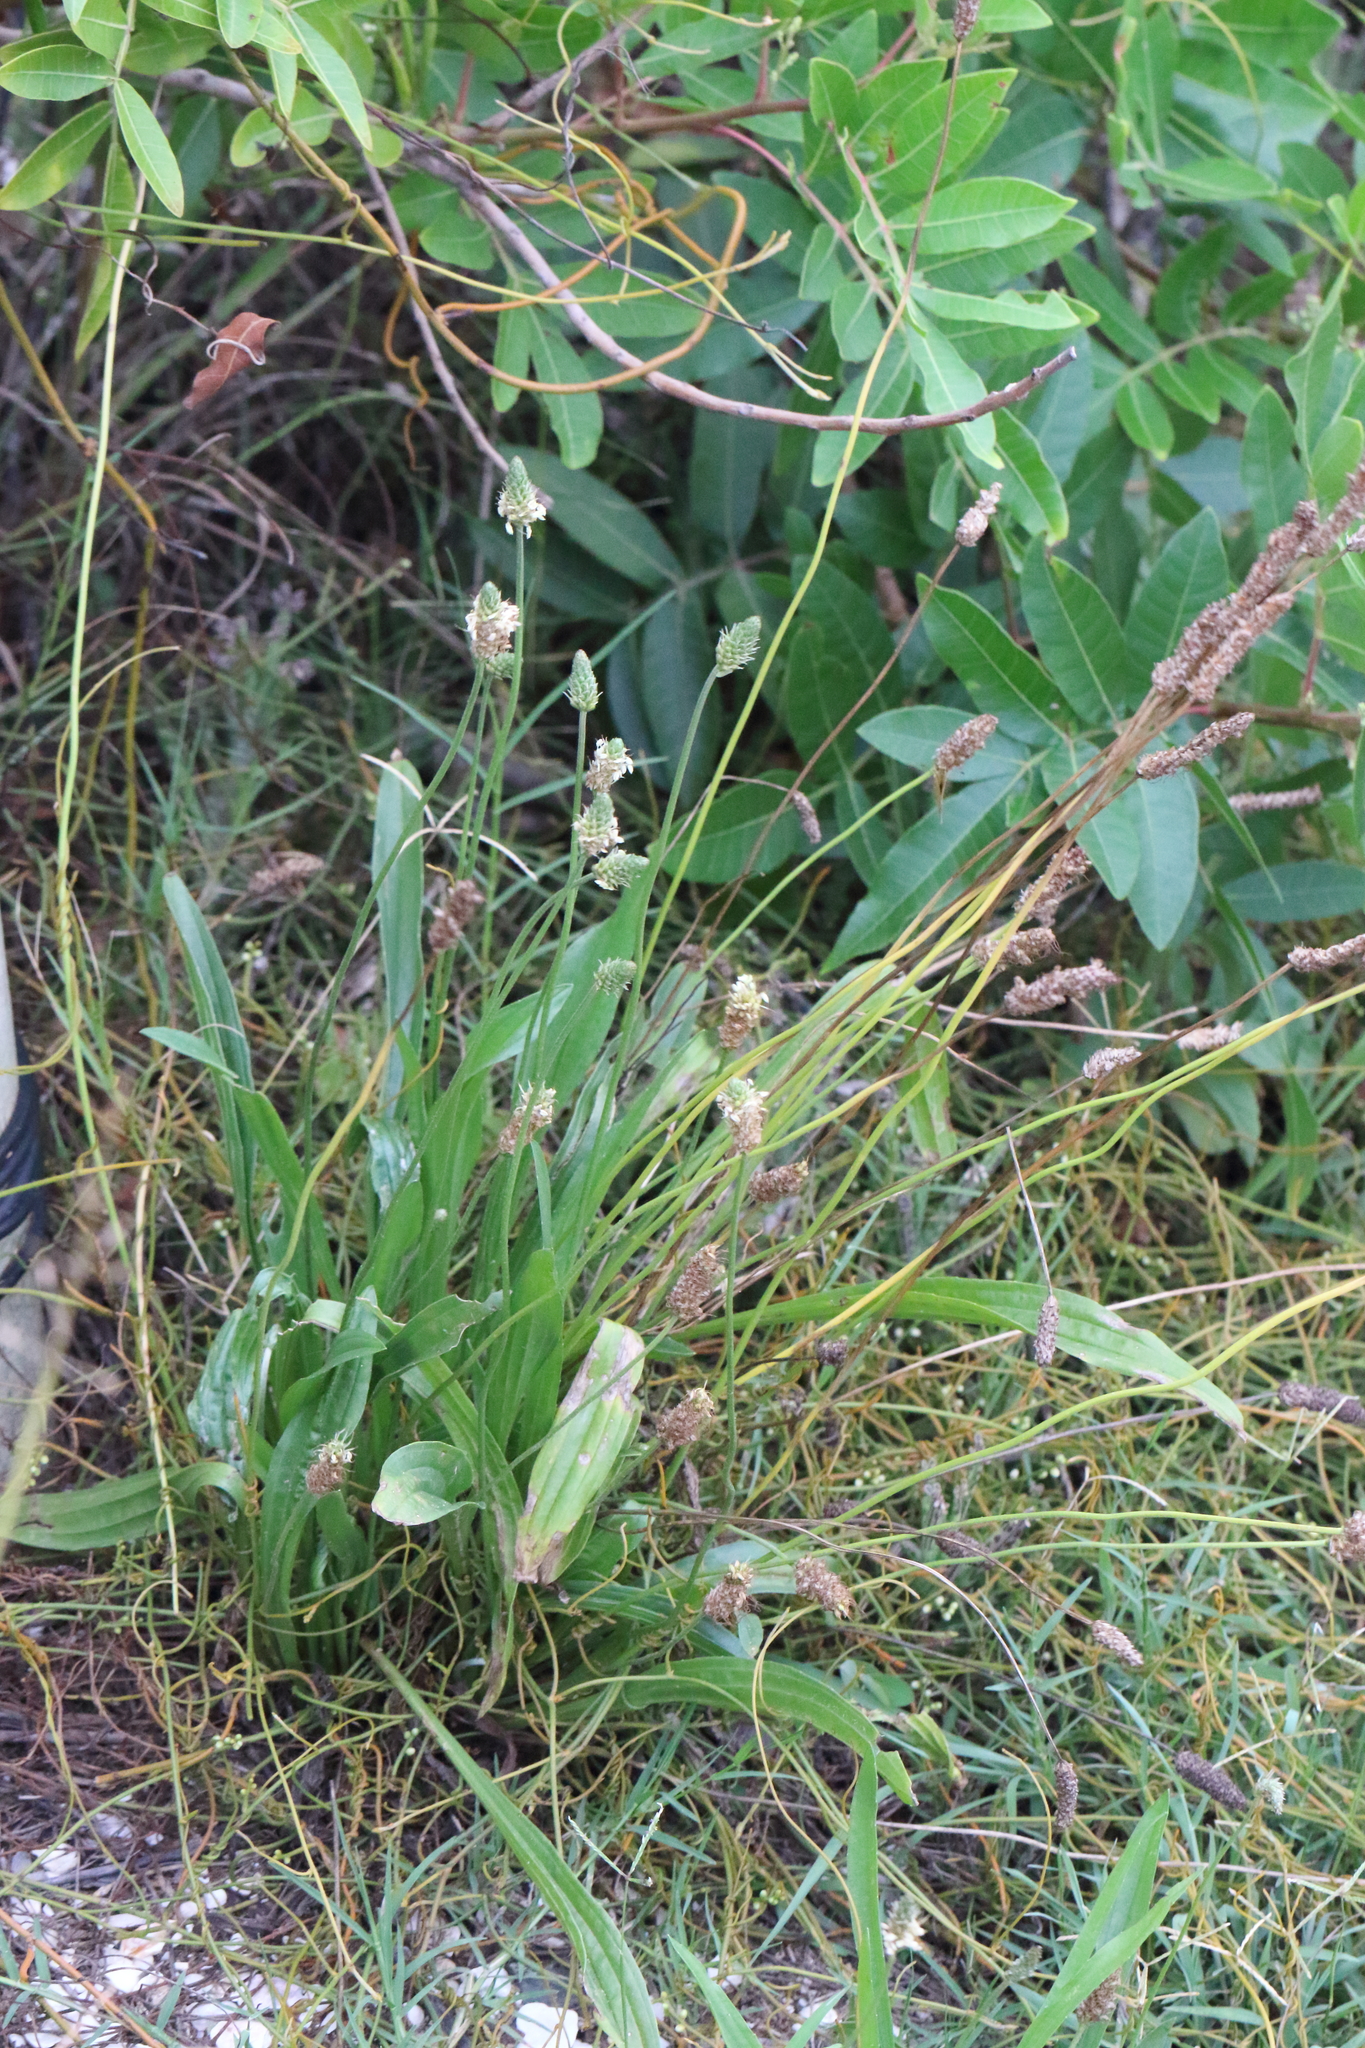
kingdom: Plantae
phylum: Tracheophyta
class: Magnoliopsida
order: Lamiales
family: Plantaginaceae
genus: Plantago
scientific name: Plantago lanceolata
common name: Ribwort plantain
